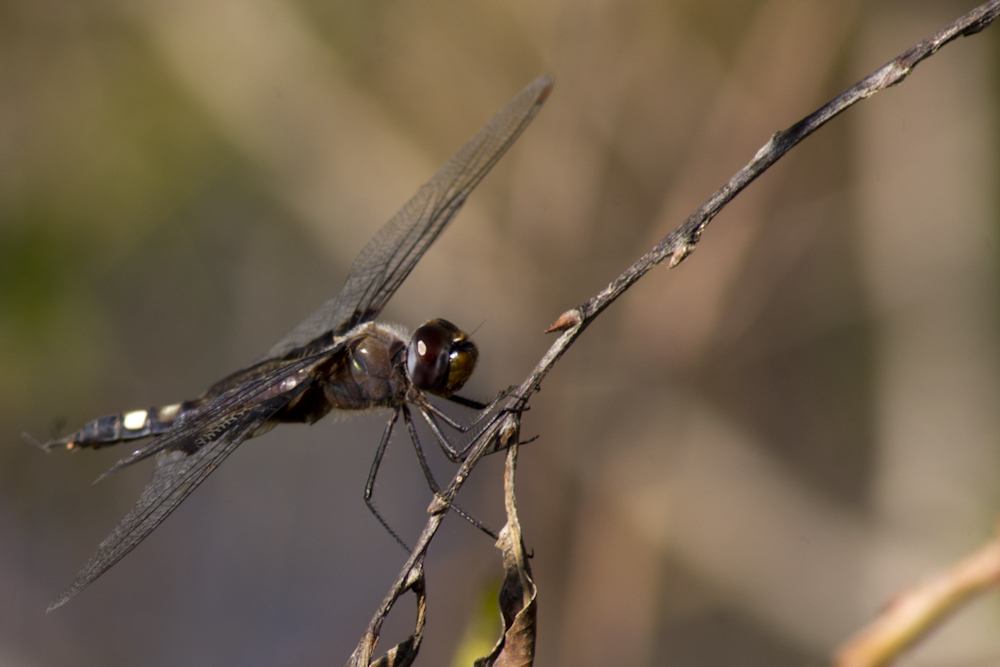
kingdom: Animalia
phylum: Arthropoda
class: Insecta
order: Odonata
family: Libellulidae
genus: Tramea
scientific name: Tramea lacerata
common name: Black saddlebags
